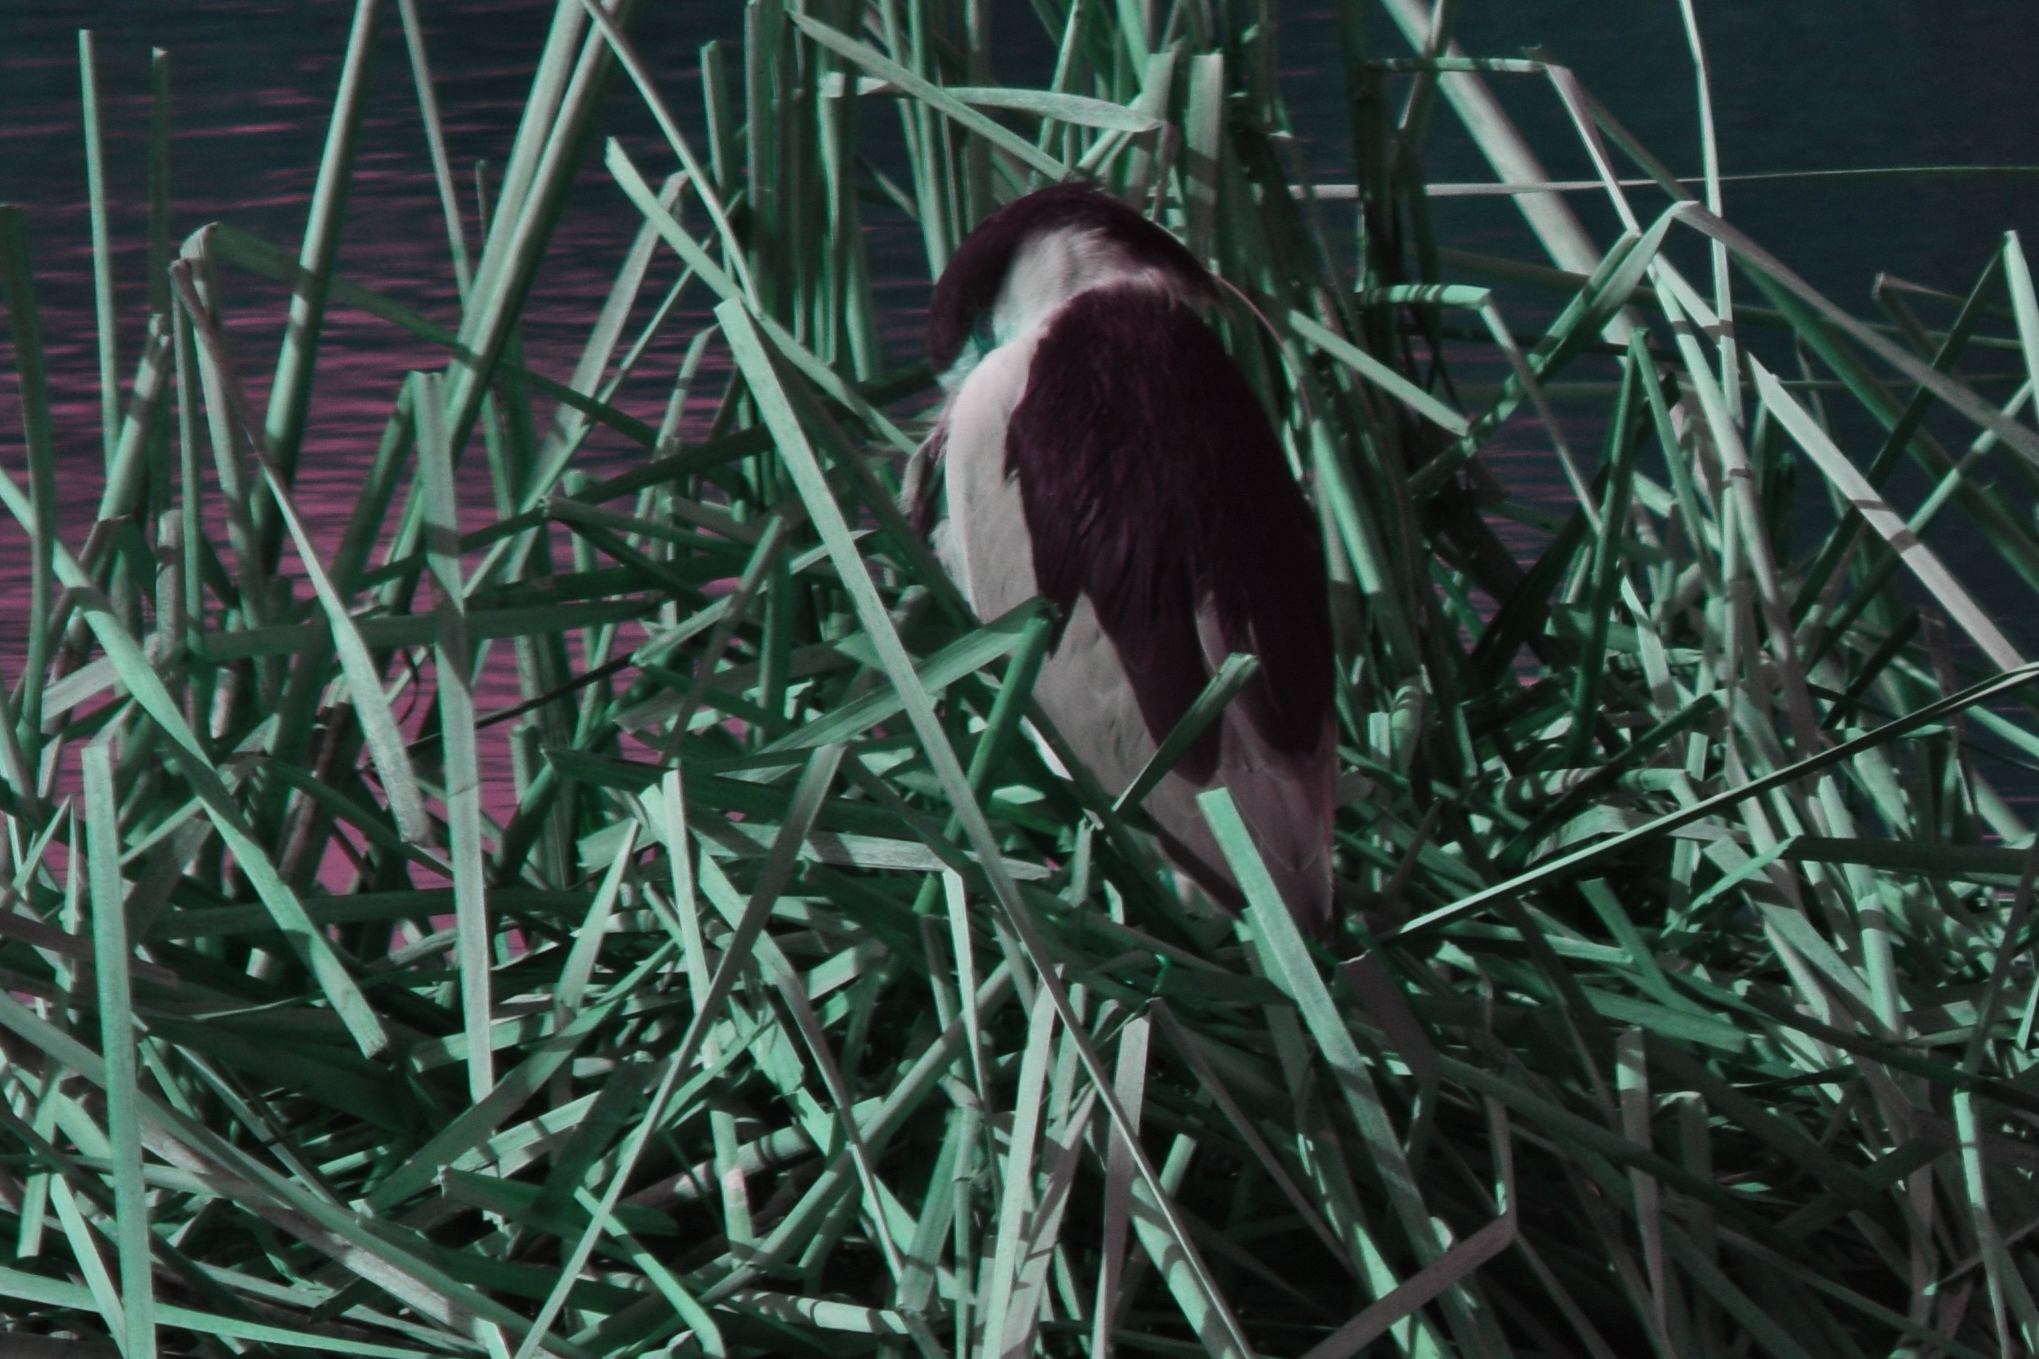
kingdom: Animalia
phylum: Chordata
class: Aves
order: Pelecaniformes
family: Ardeidae
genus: Nycticorax
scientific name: Nycticorax nycticorax
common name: Black-crowned night heron
